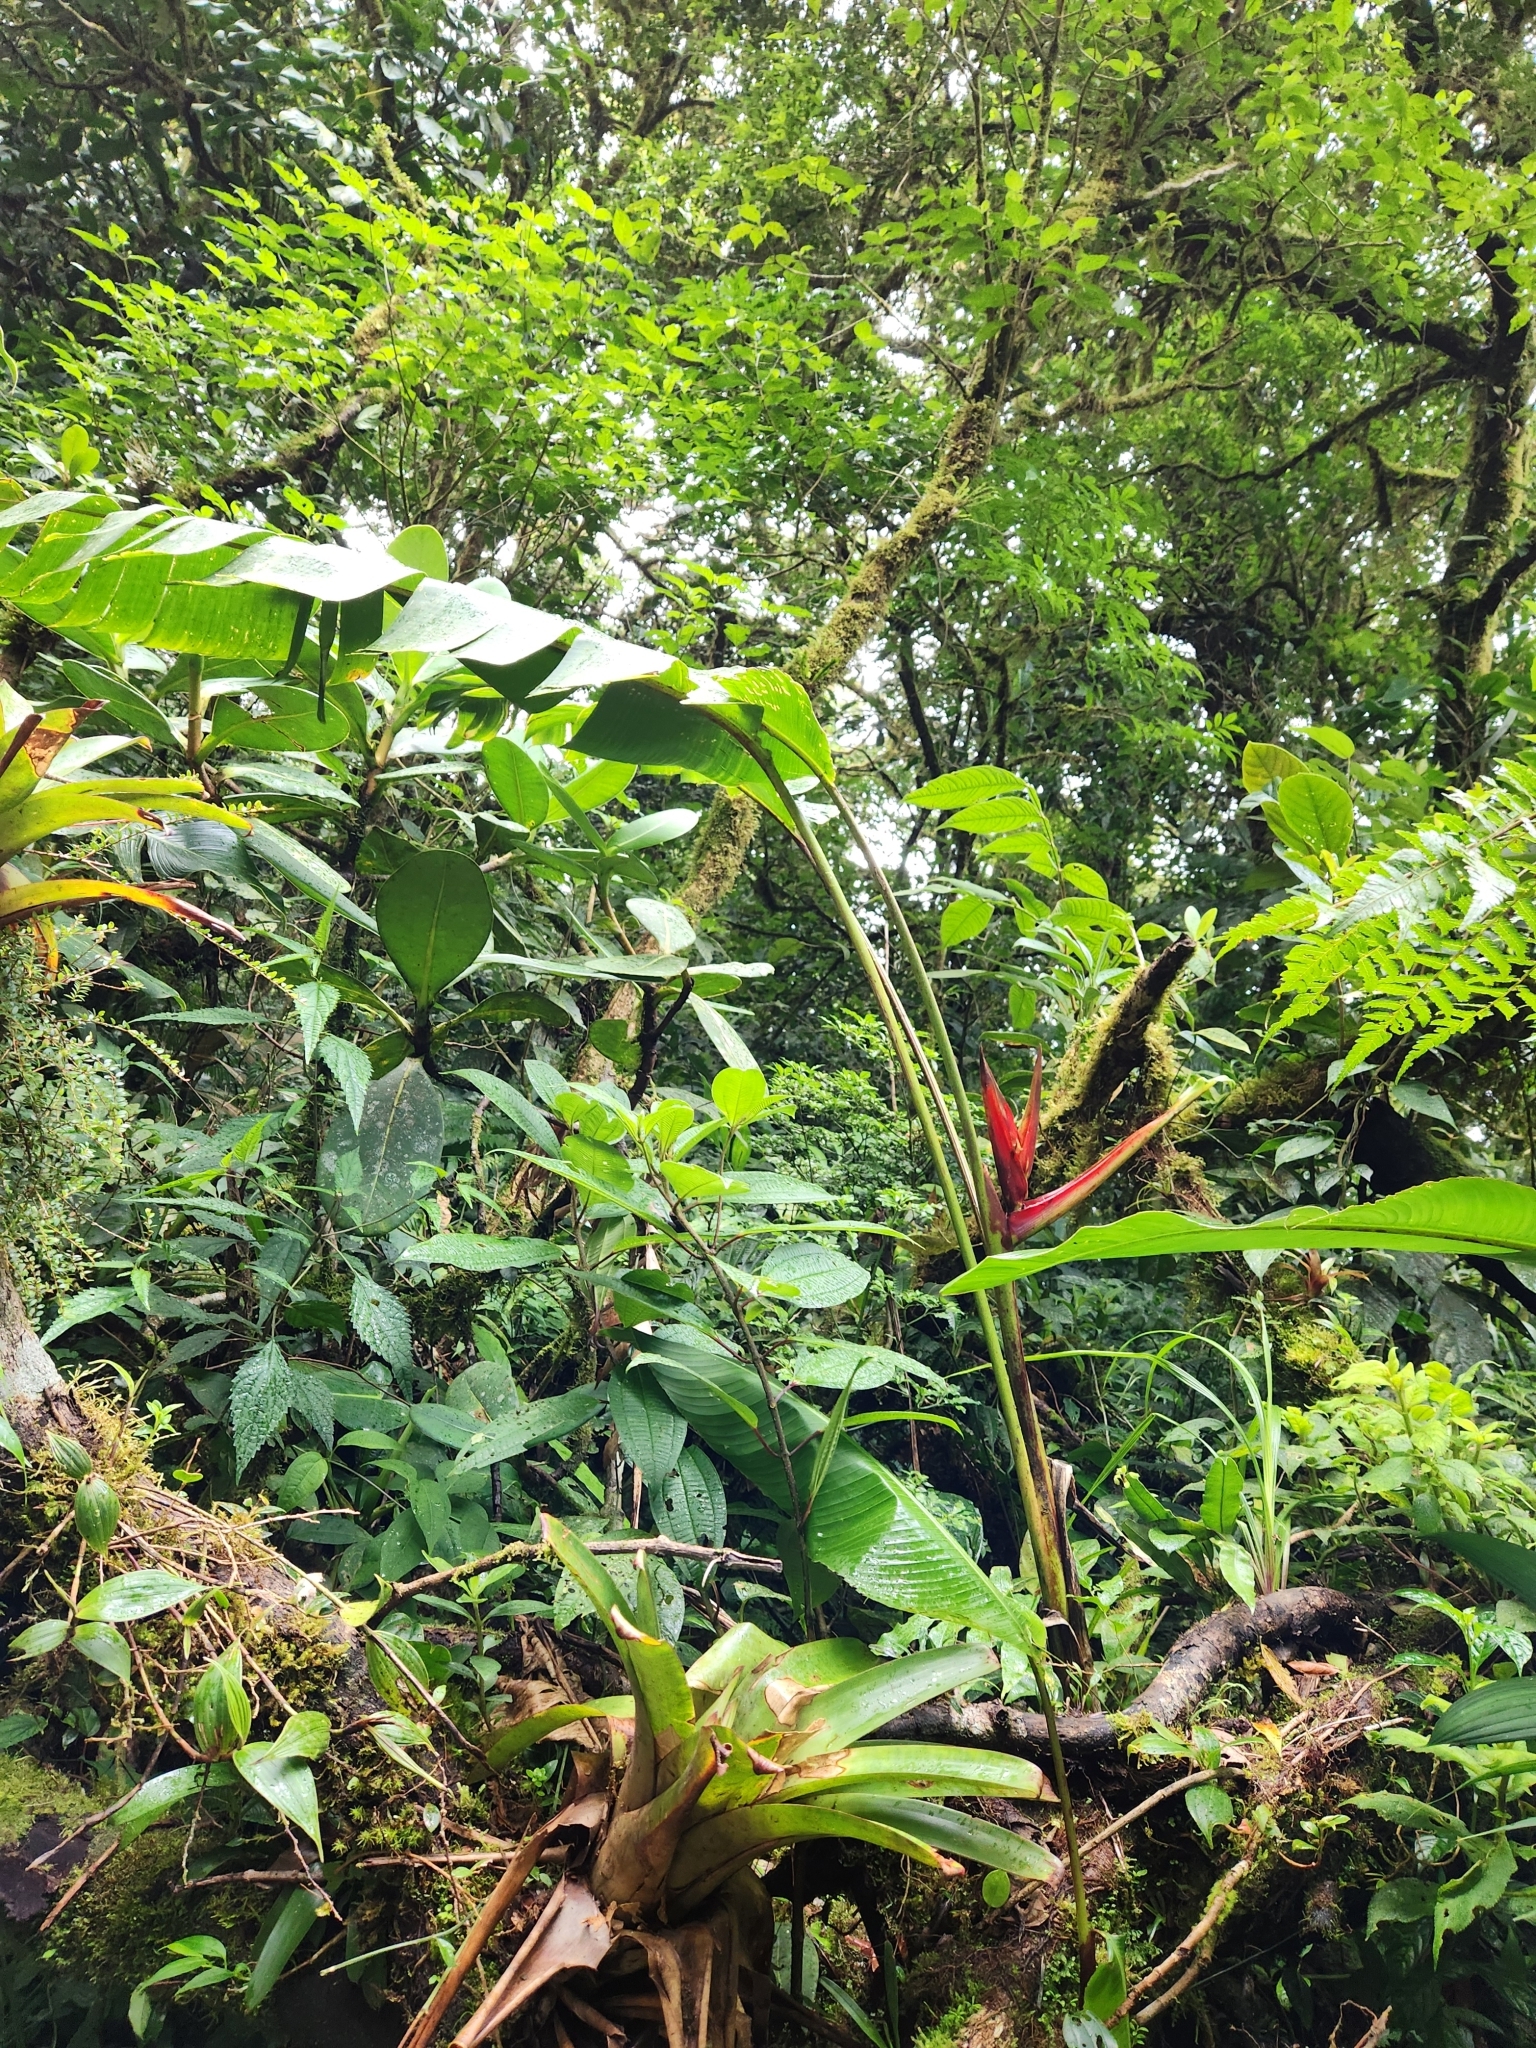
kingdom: Plantae
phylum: Tracheophyta
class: Liliopsida
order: Zingiberales
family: Heliconiaceae
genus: Heliconia
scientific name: Heliconia monteverdensis
